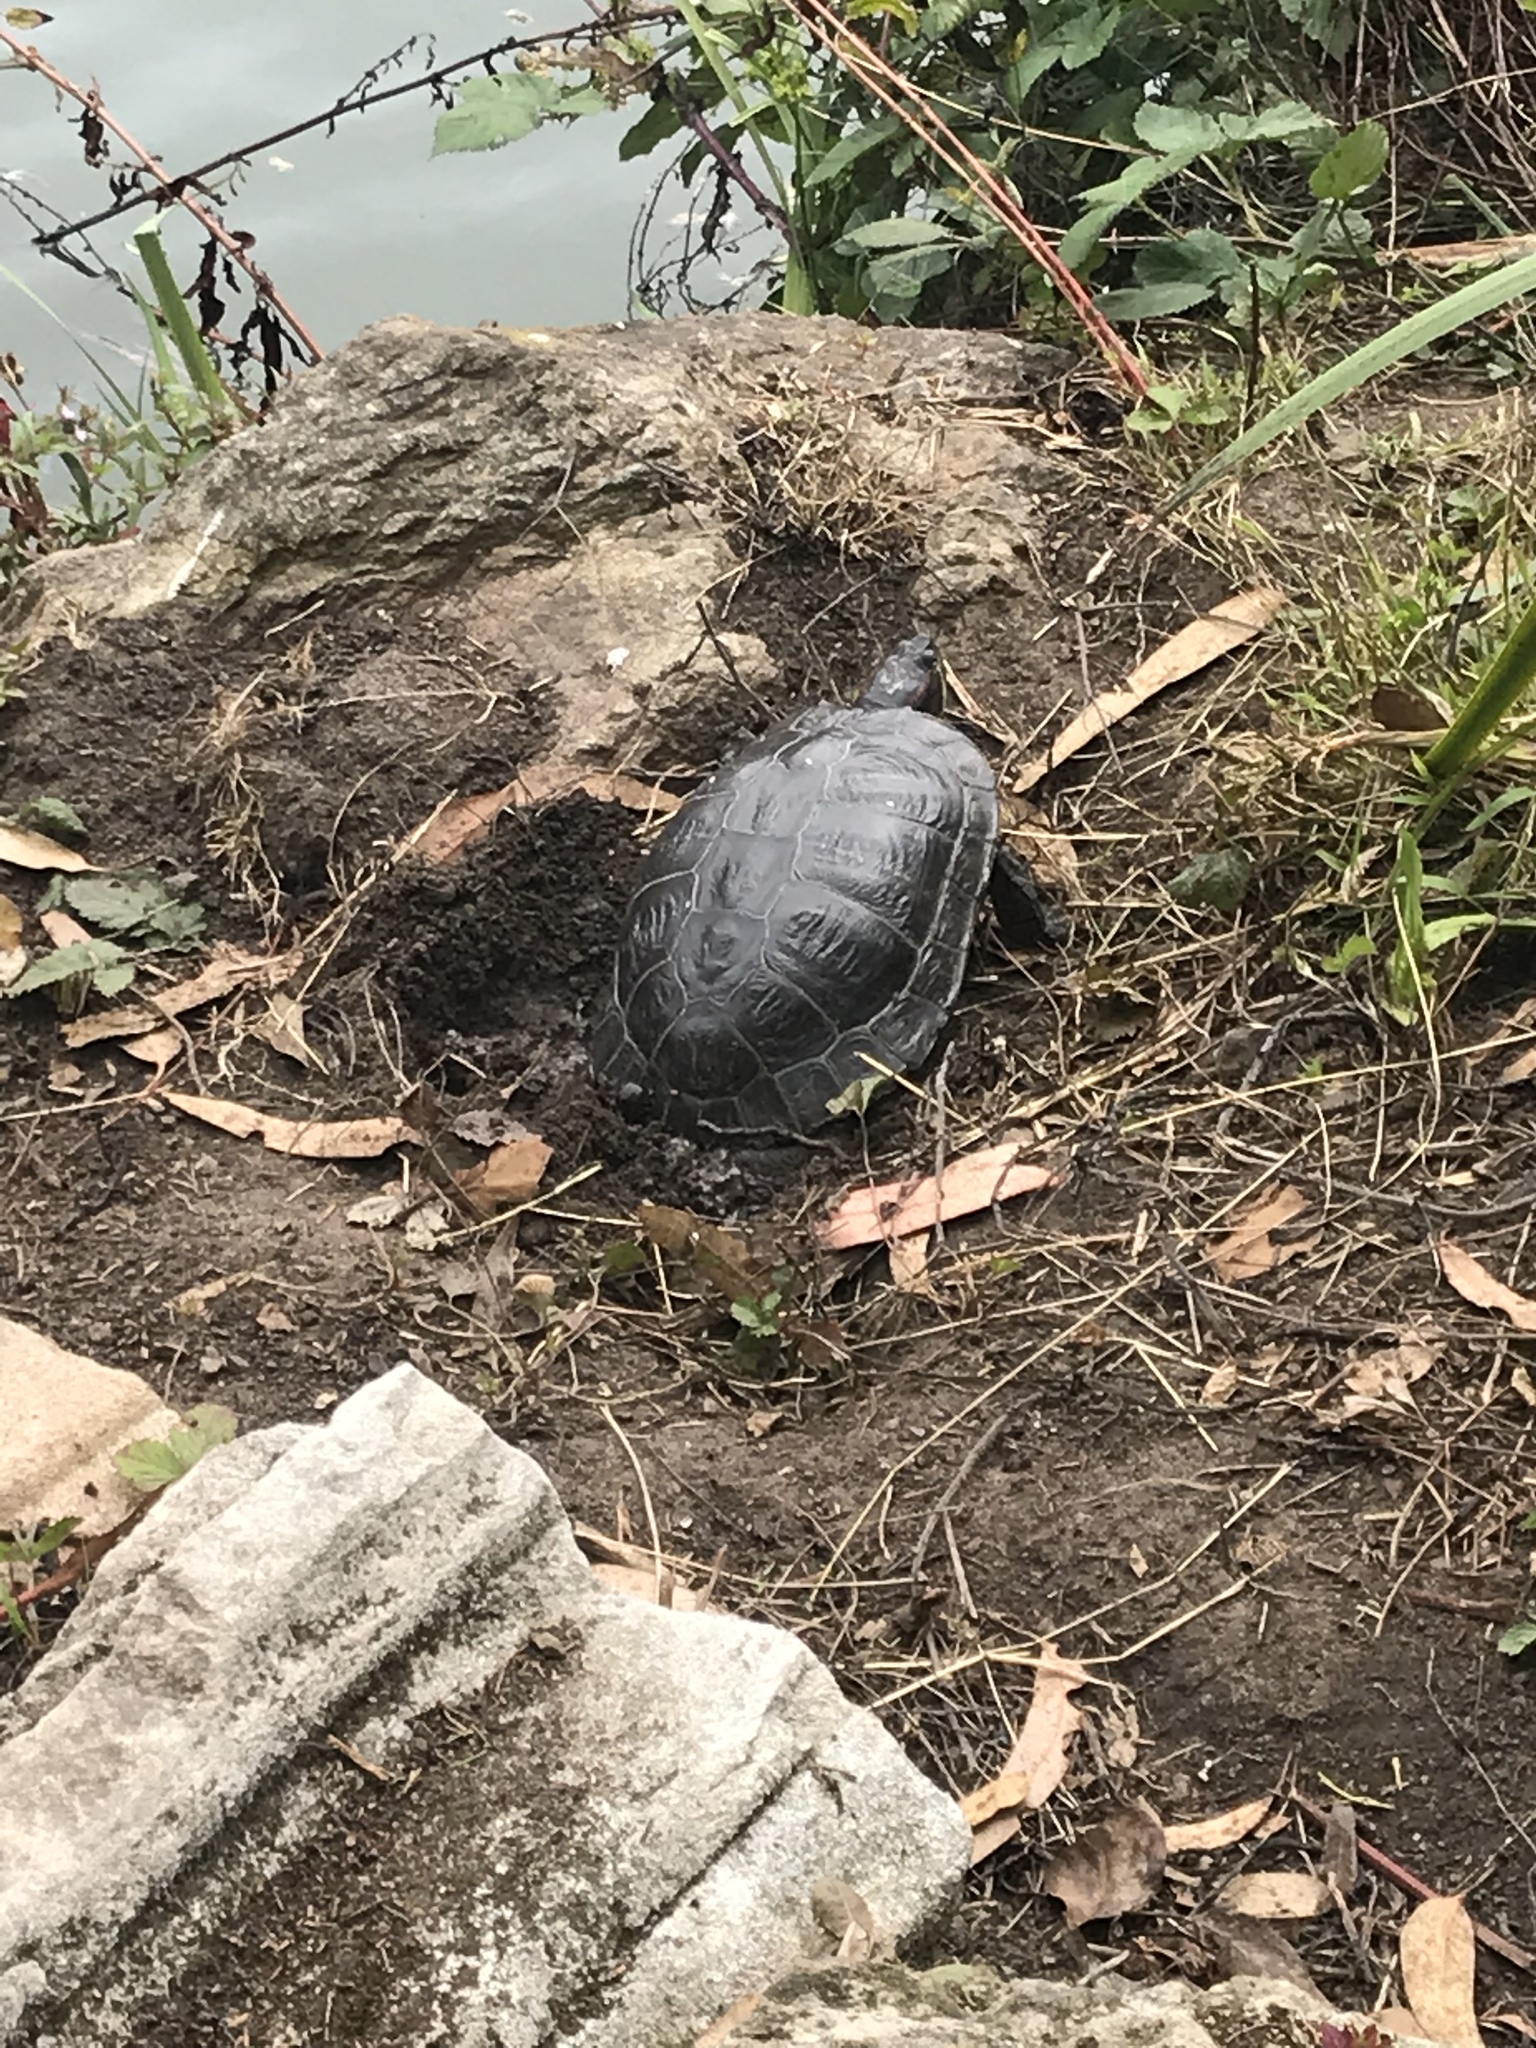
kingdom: Animalia
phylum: Chordata
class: Testudines
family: Emydidae
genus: Trachemys
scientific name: Trachemys scripta
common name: Slider
